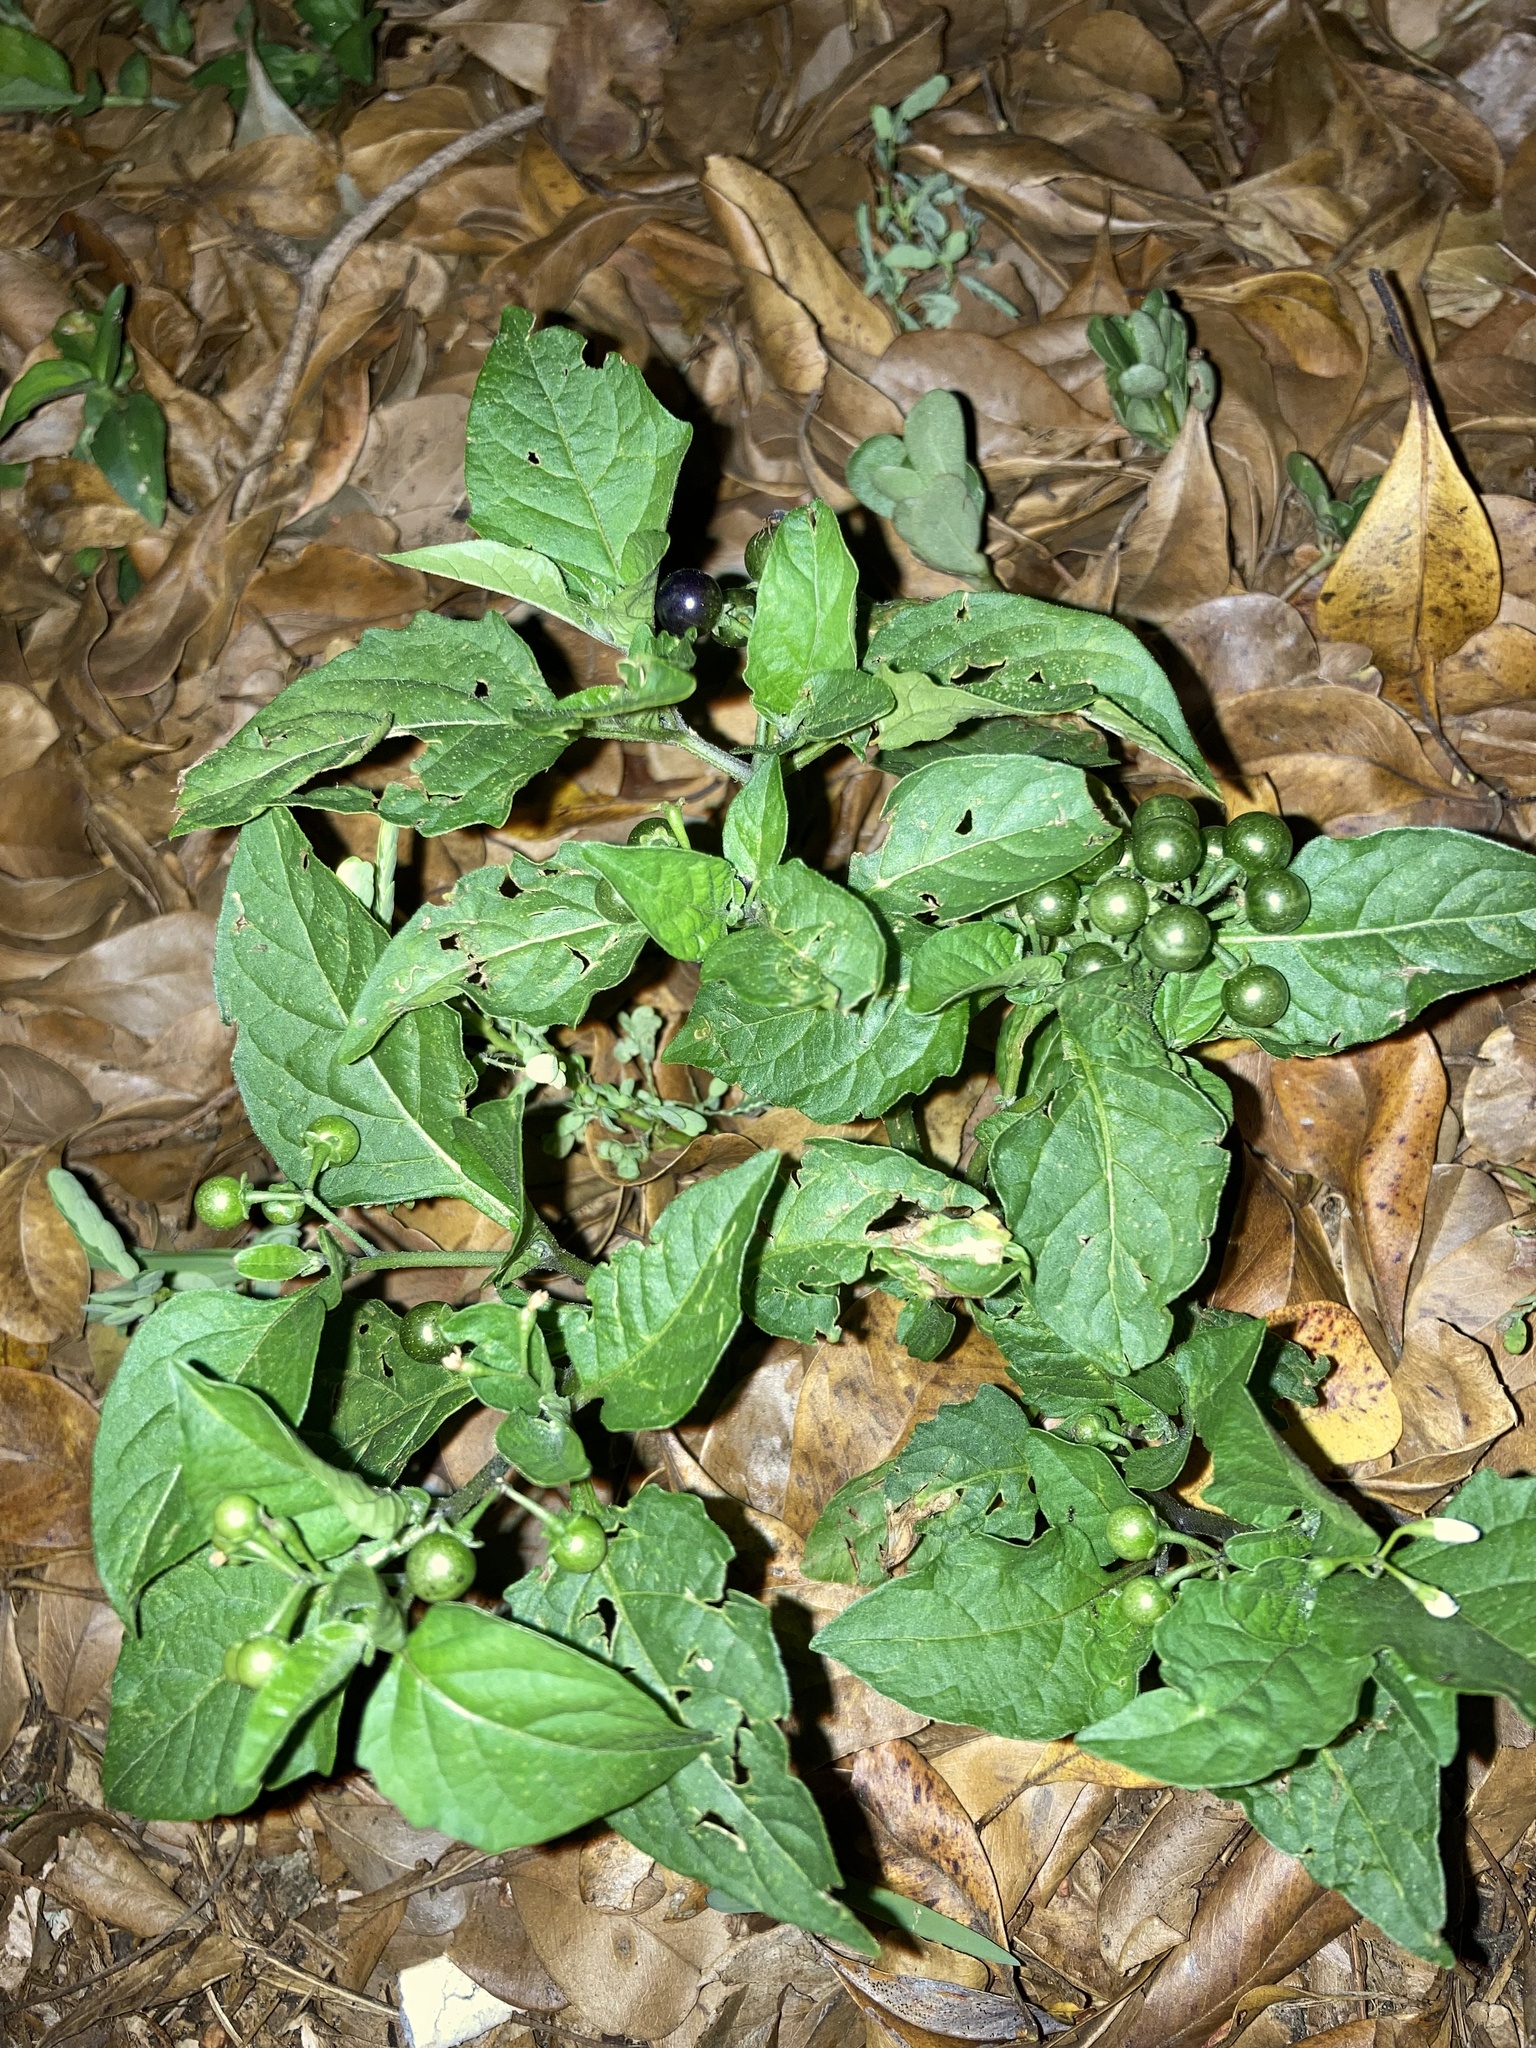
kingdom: Plantae
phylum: Tracheophyta
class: Magnoliopsida
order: Solanales
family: Solanaceae
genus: Solanum
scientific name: Solanum americanum
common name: American black nightshade
